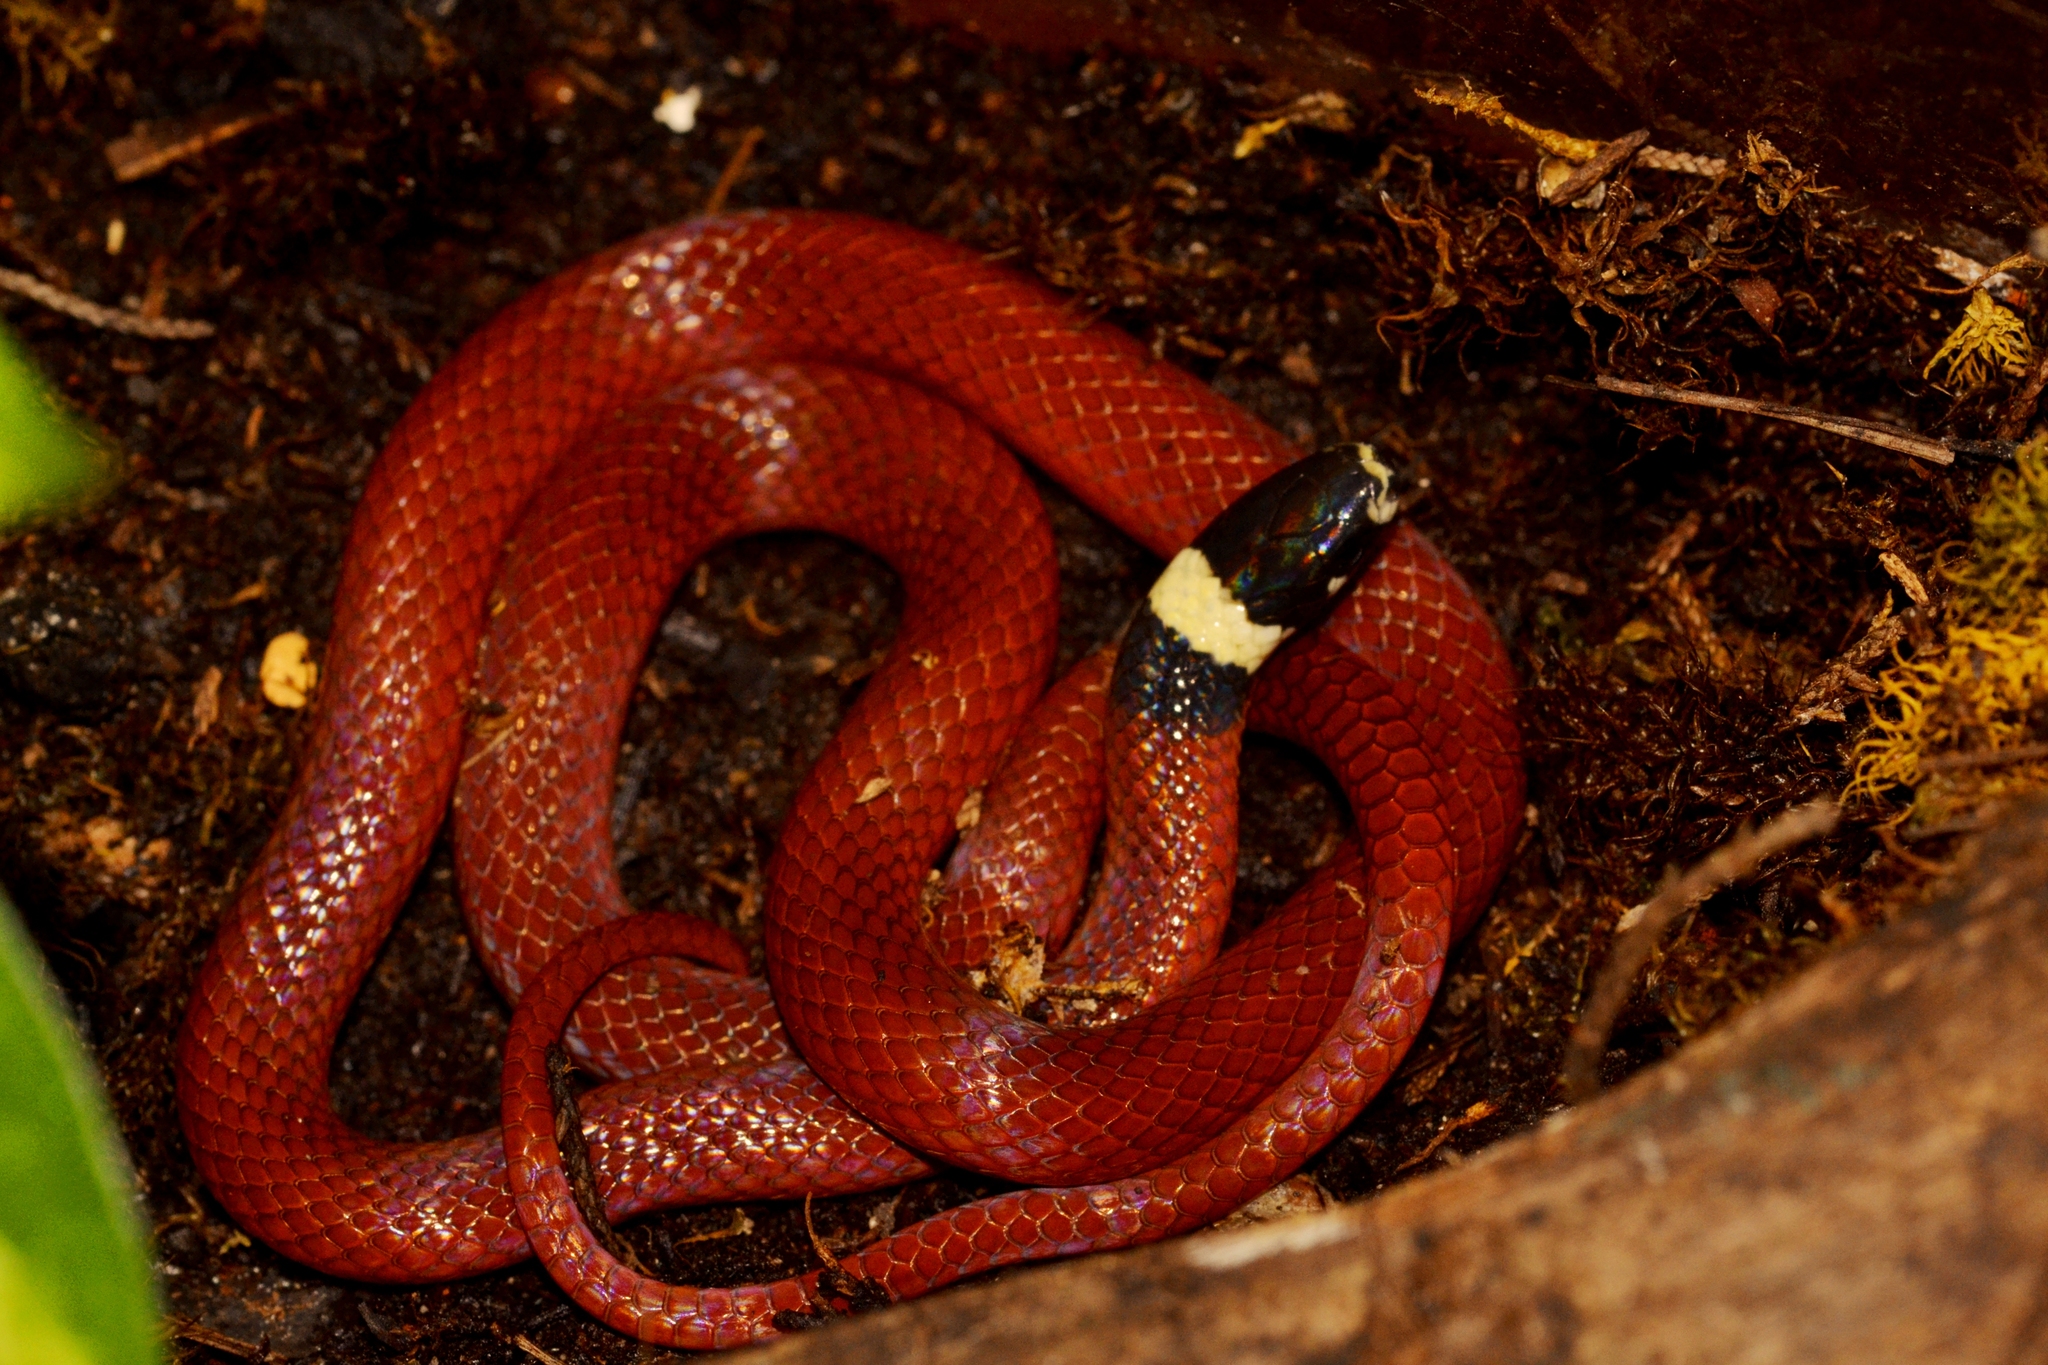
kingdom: Animalia
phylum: Chordata
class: Squamata
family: Colubridae
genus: Tantilla
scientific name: Tantilla rubra
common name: Big bend black-headed snake
